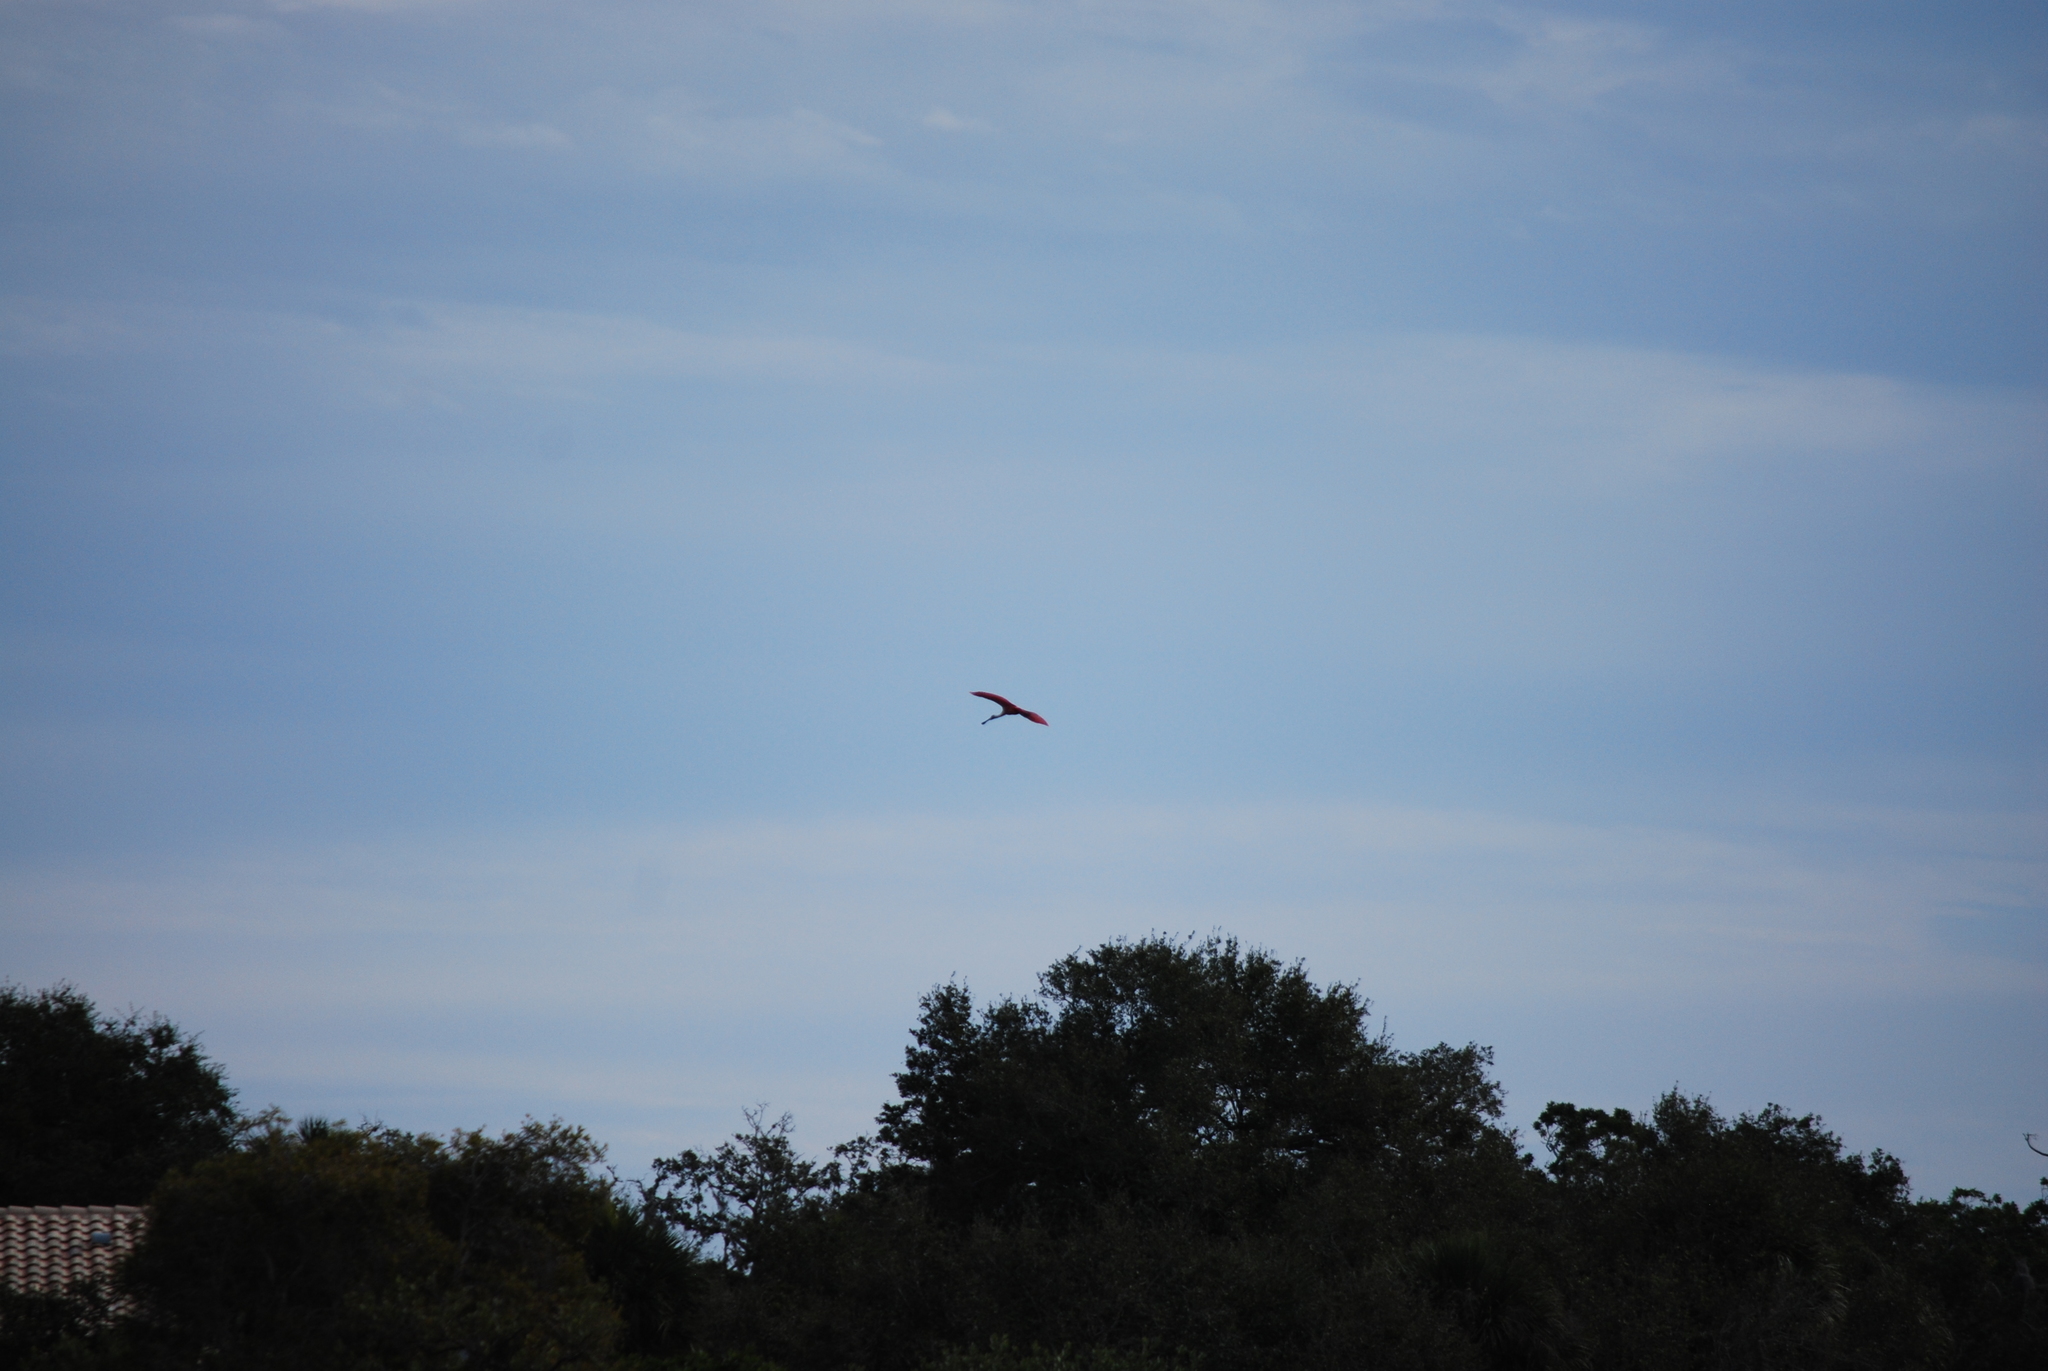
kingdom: Animalia
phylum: Chordata
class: Aves
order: Pelecaniformes
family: Threskiornithidae
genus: Platalea
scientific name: Platalea ajaja
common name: Roseate spoonbill
